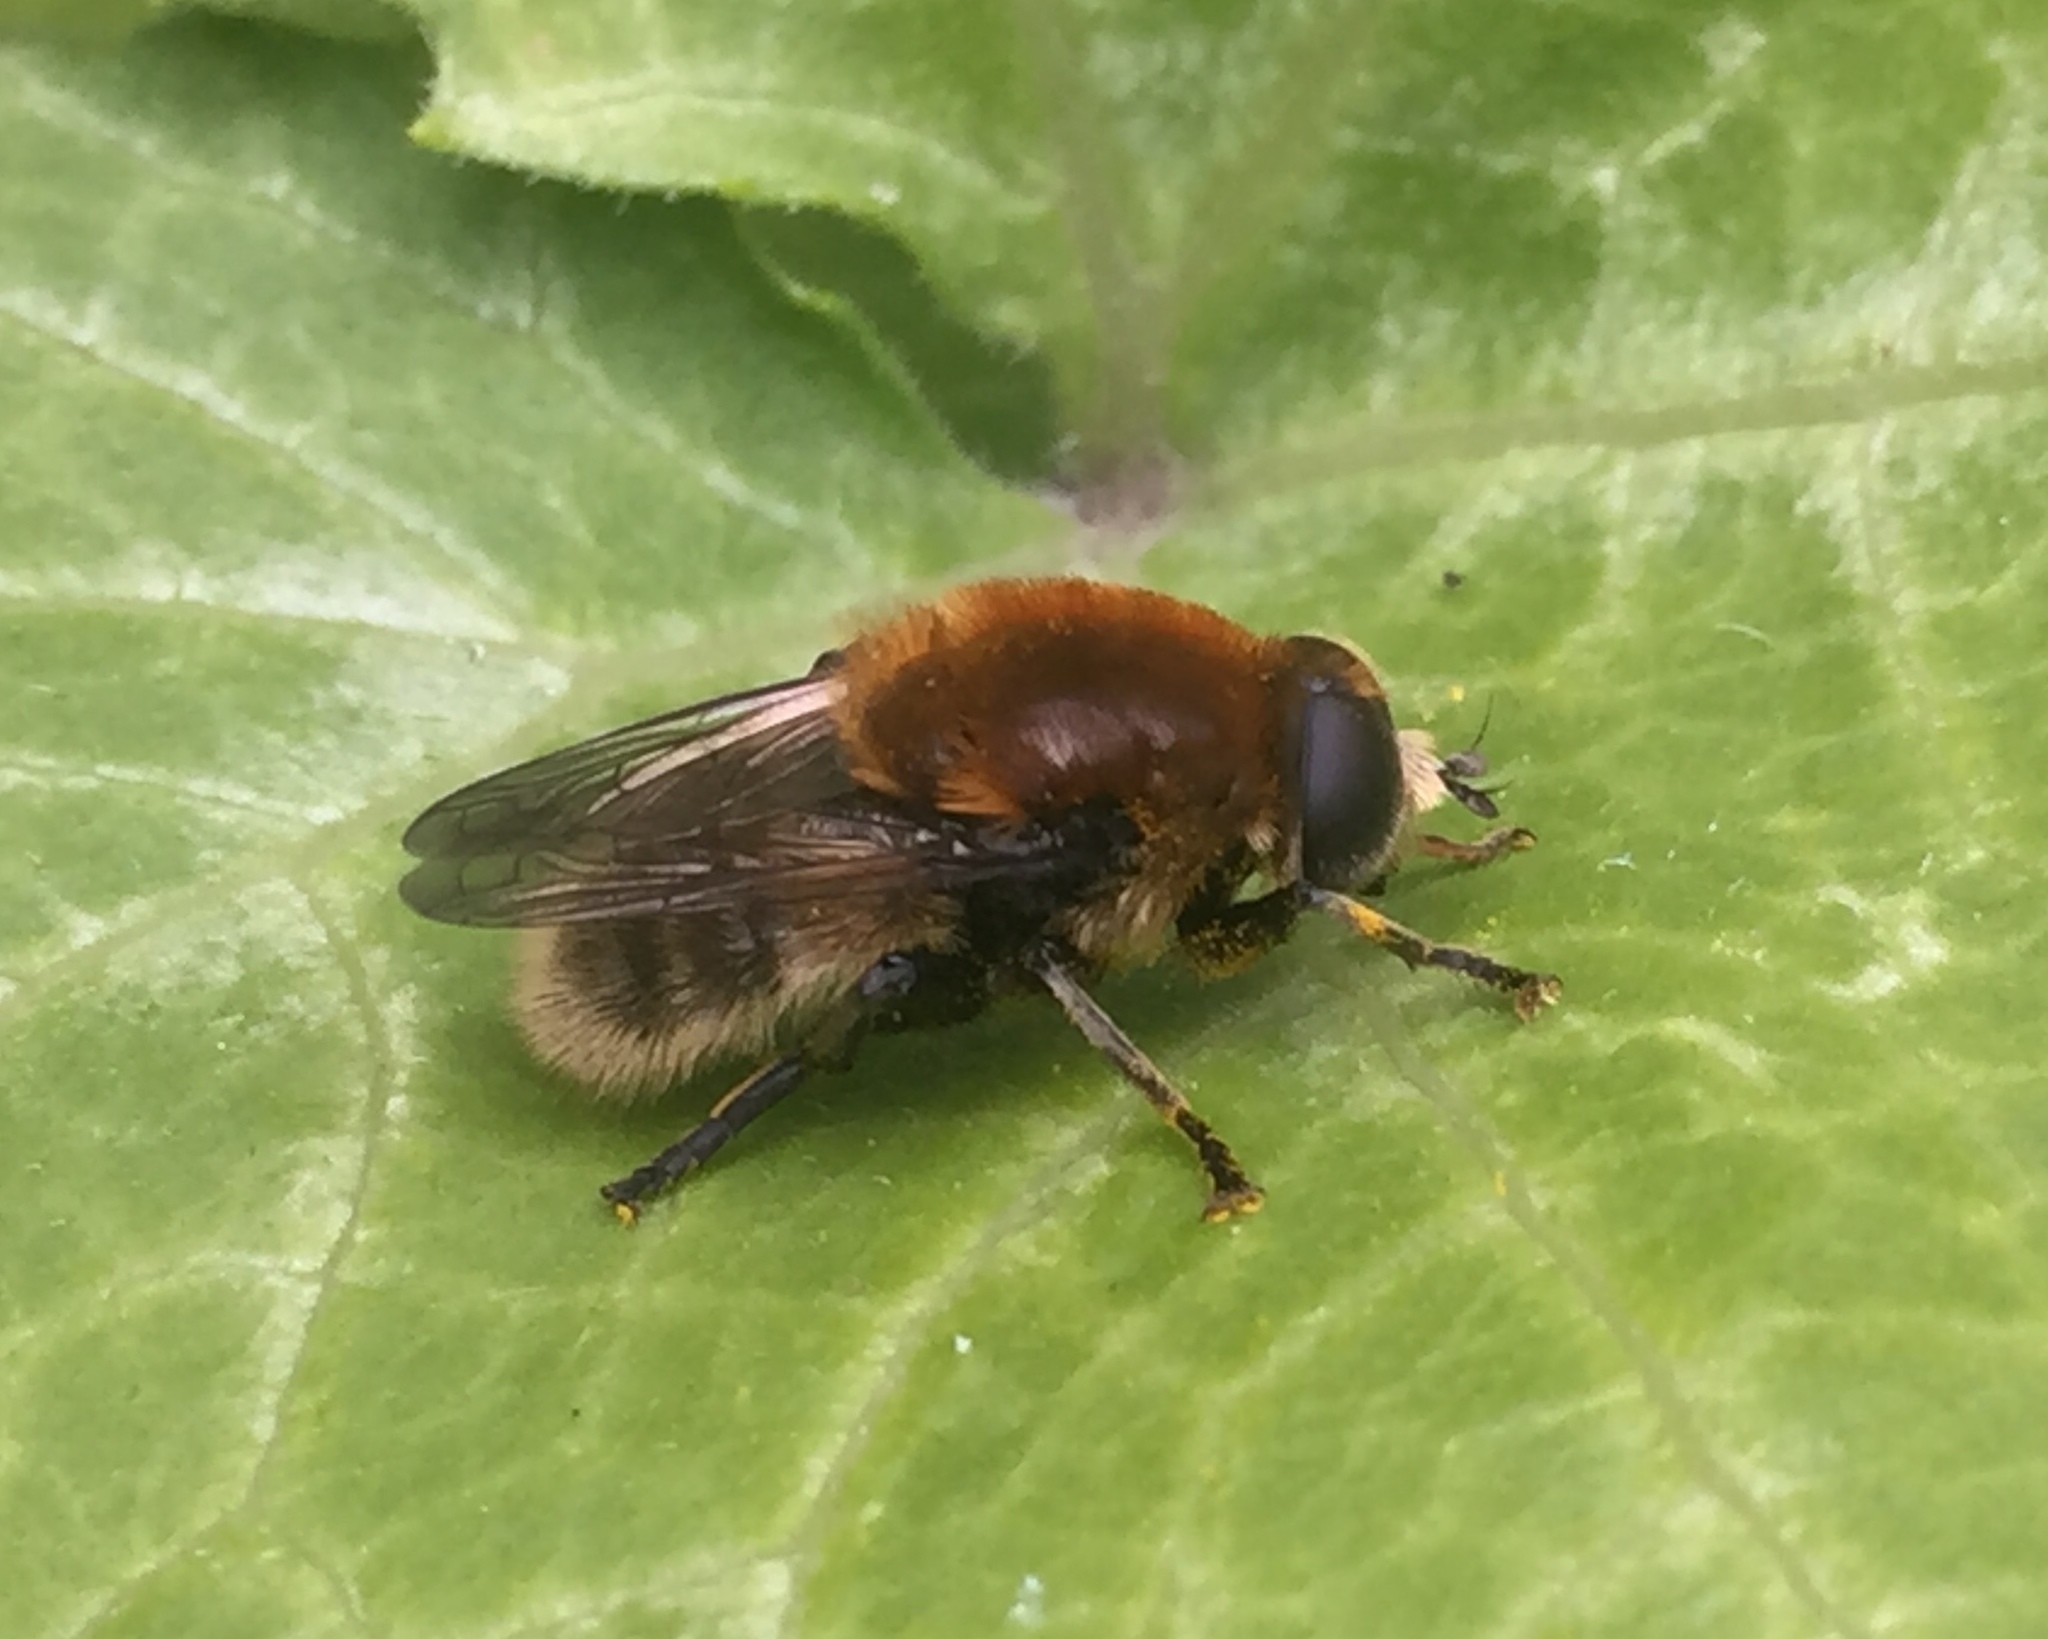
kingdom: Animalia
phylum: Arthropoda
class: Insecta
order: Diptera
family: Syrphidae
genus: Merodon
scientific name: Merodon equestris
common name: Greater bulb-fly
